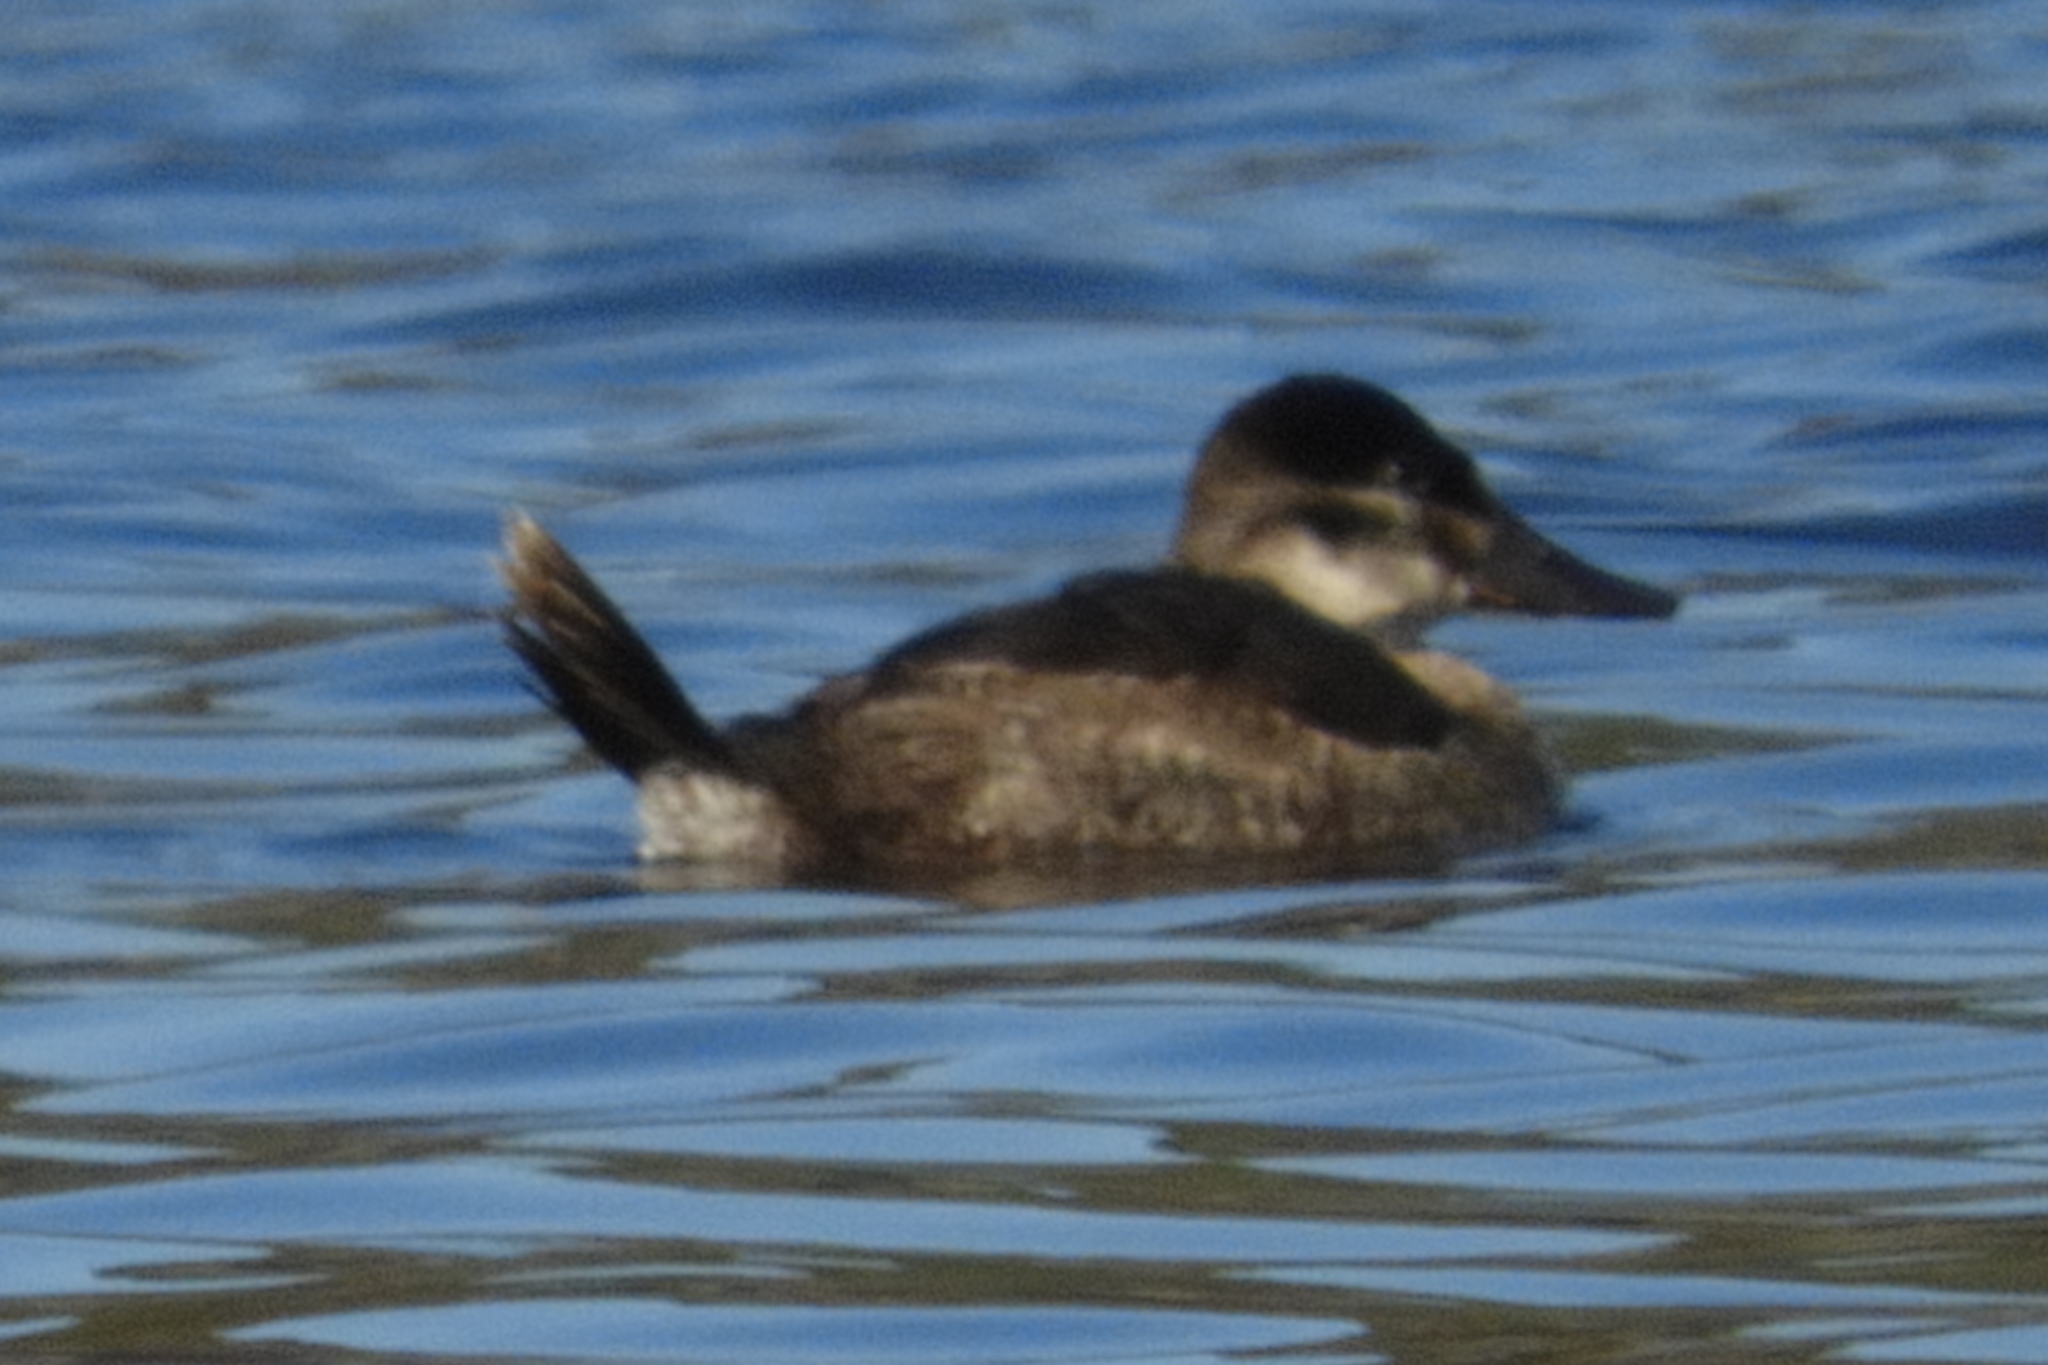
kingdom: Animalia
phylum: Chordata
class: Aves
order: Anseriformes
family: Anatidae
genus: Oxyura
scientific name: Oxyura jamaicensis
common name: Ruddy duck
